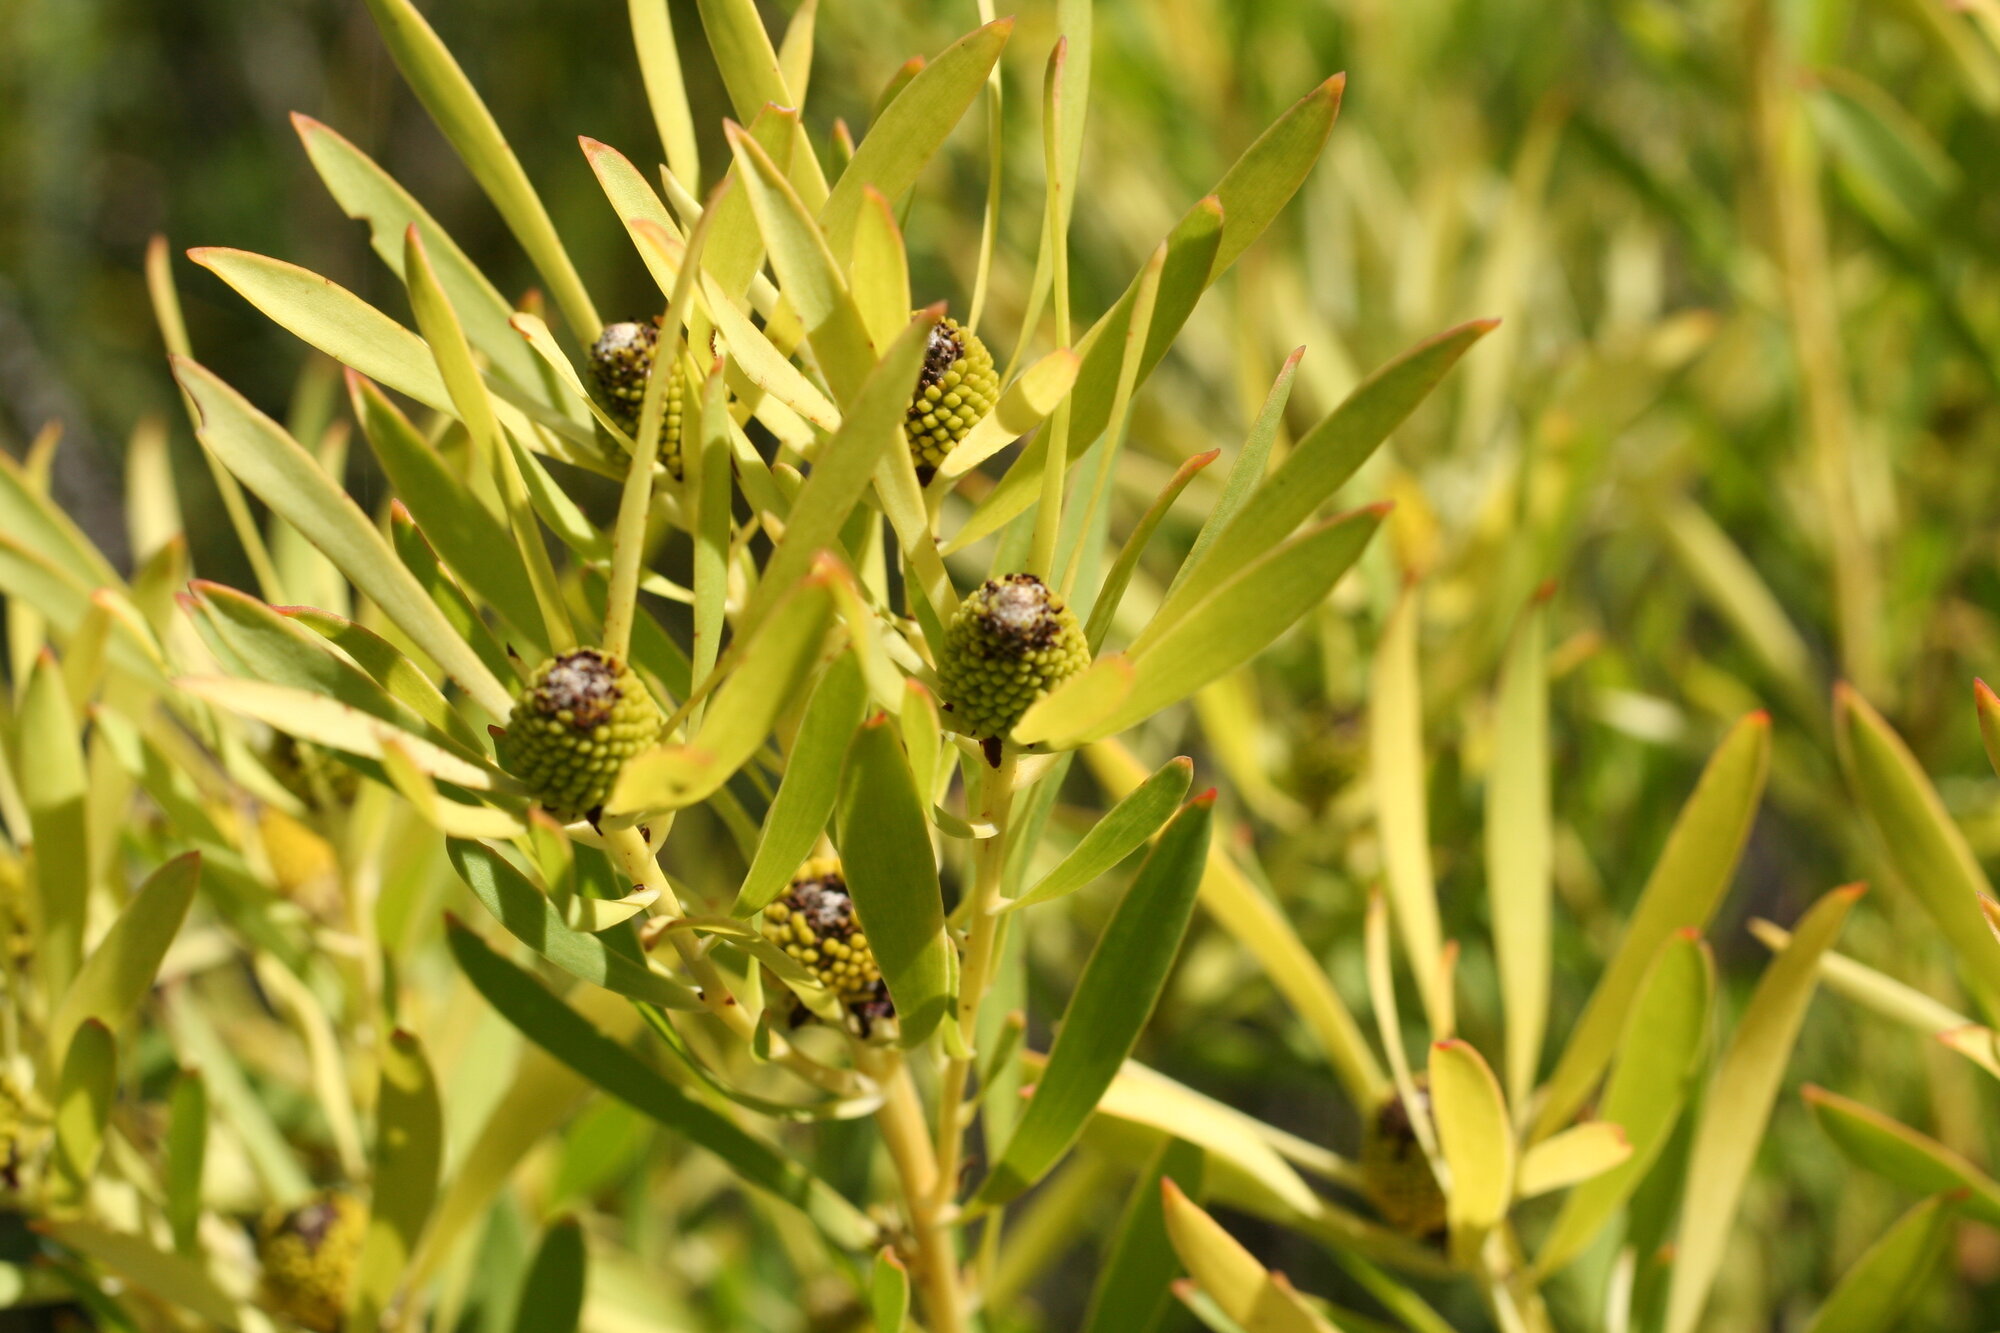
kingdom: Plantae
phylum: Tracheophyta
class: Magnoliopsida
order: Proteales
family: Proteaceae
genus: Leucadendron
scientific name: Leucadendron salignum
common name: Common sunshine conebush
